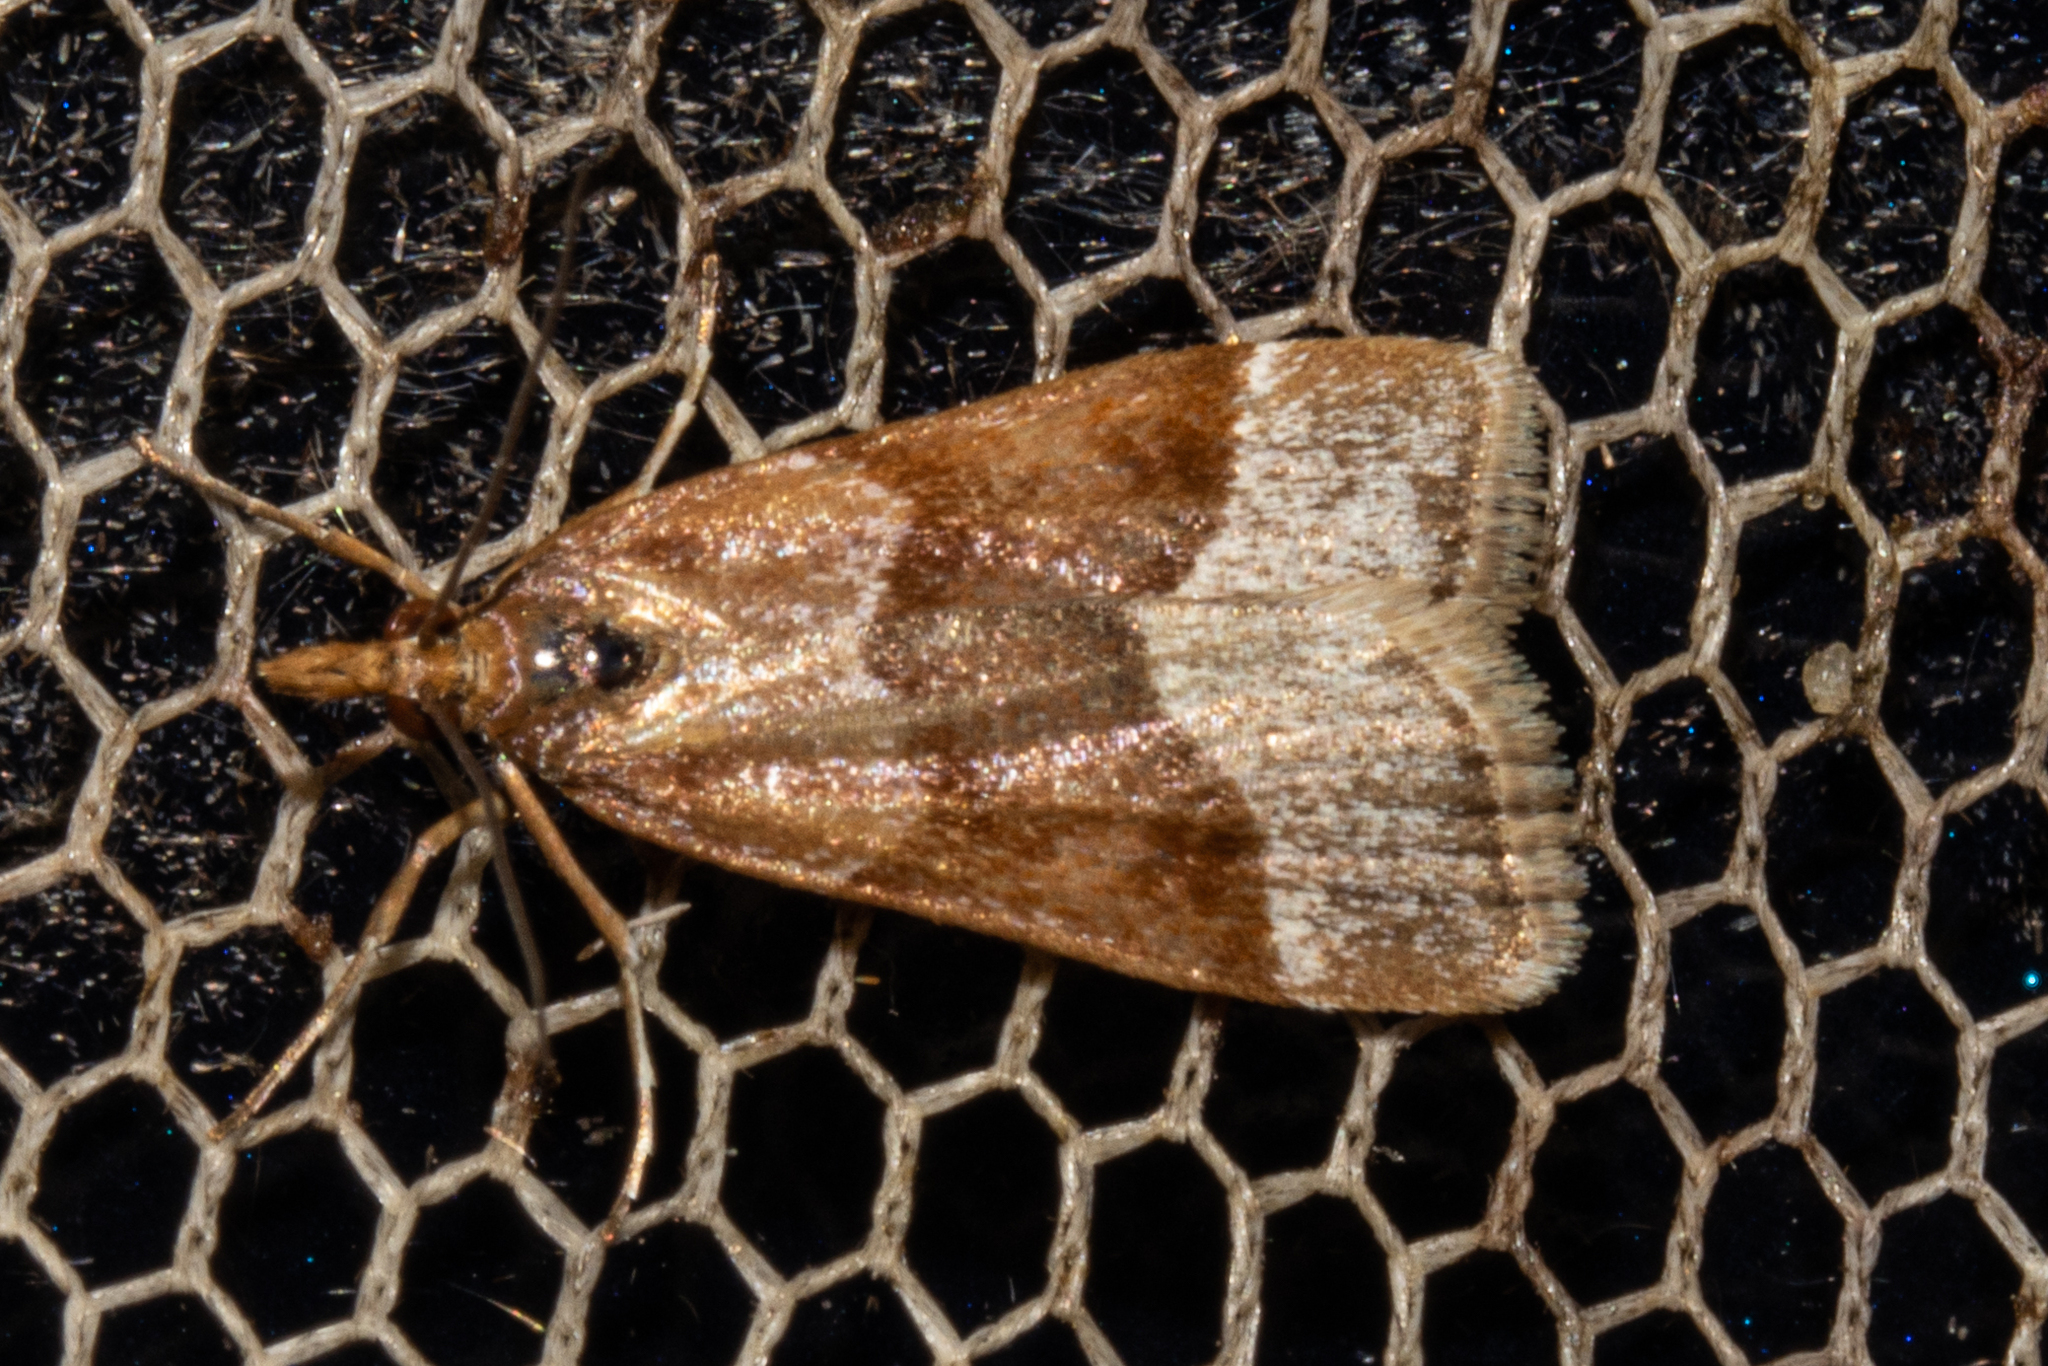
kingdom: Animalia
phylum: Arthropoda
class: Insecta
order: Lepidoptera
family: Crambidae
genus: Eudonia
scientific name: Eudonia feredayi
